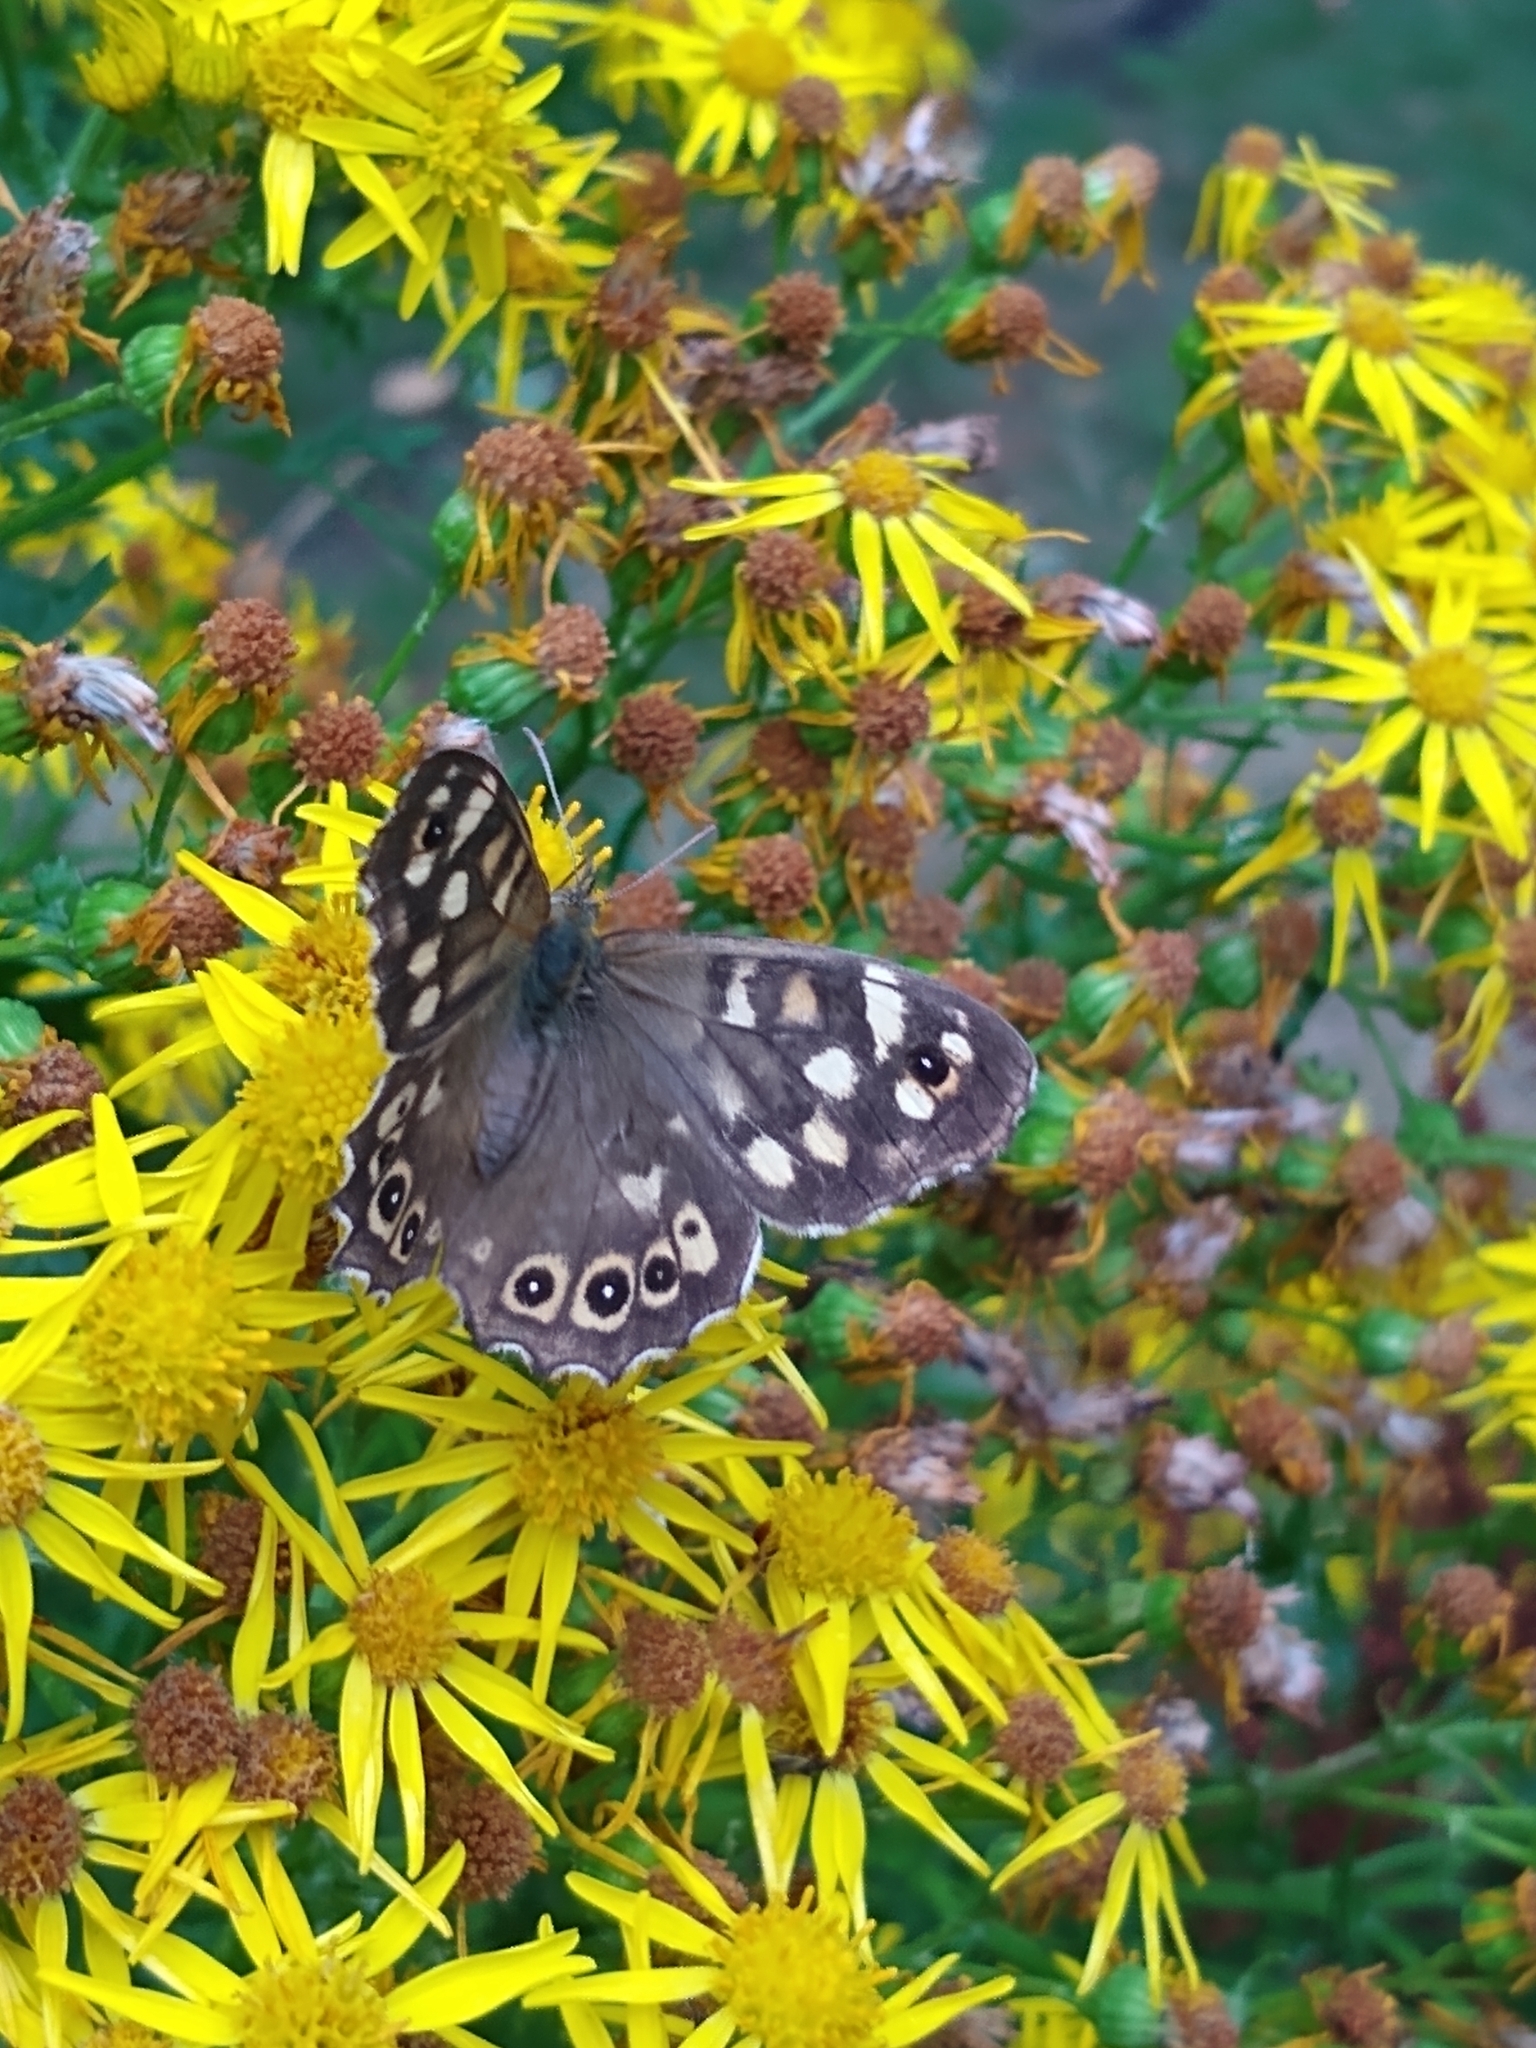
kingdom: Animalia
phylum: Arthropoda
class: Insecta
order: Lepidoptera
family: Nymphalidae
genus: Pararge
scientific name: Pararge aegeria
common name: Speckled wood
